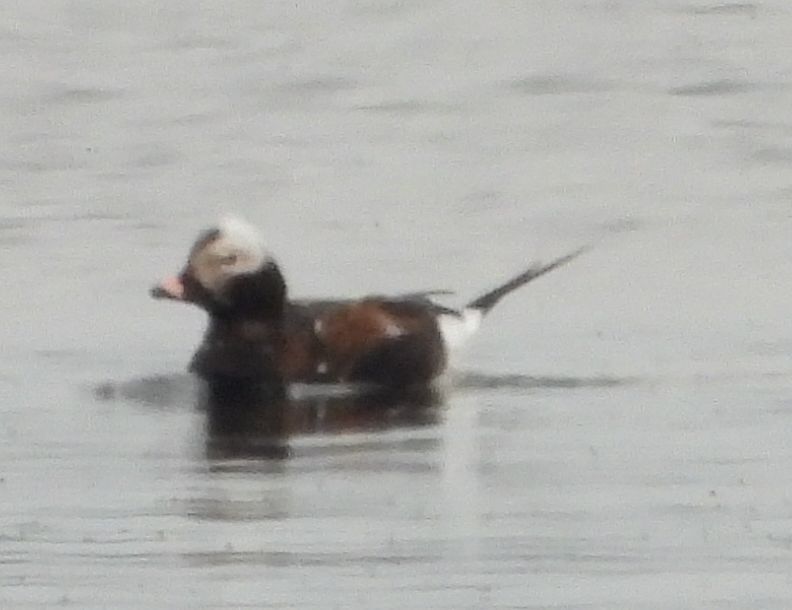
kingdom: Animalia
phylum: Chordata
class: Aves
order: Anseriformes
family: Anatidae
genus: Clangula
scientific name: Clangula hyemalis
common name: Long-tailed duck
